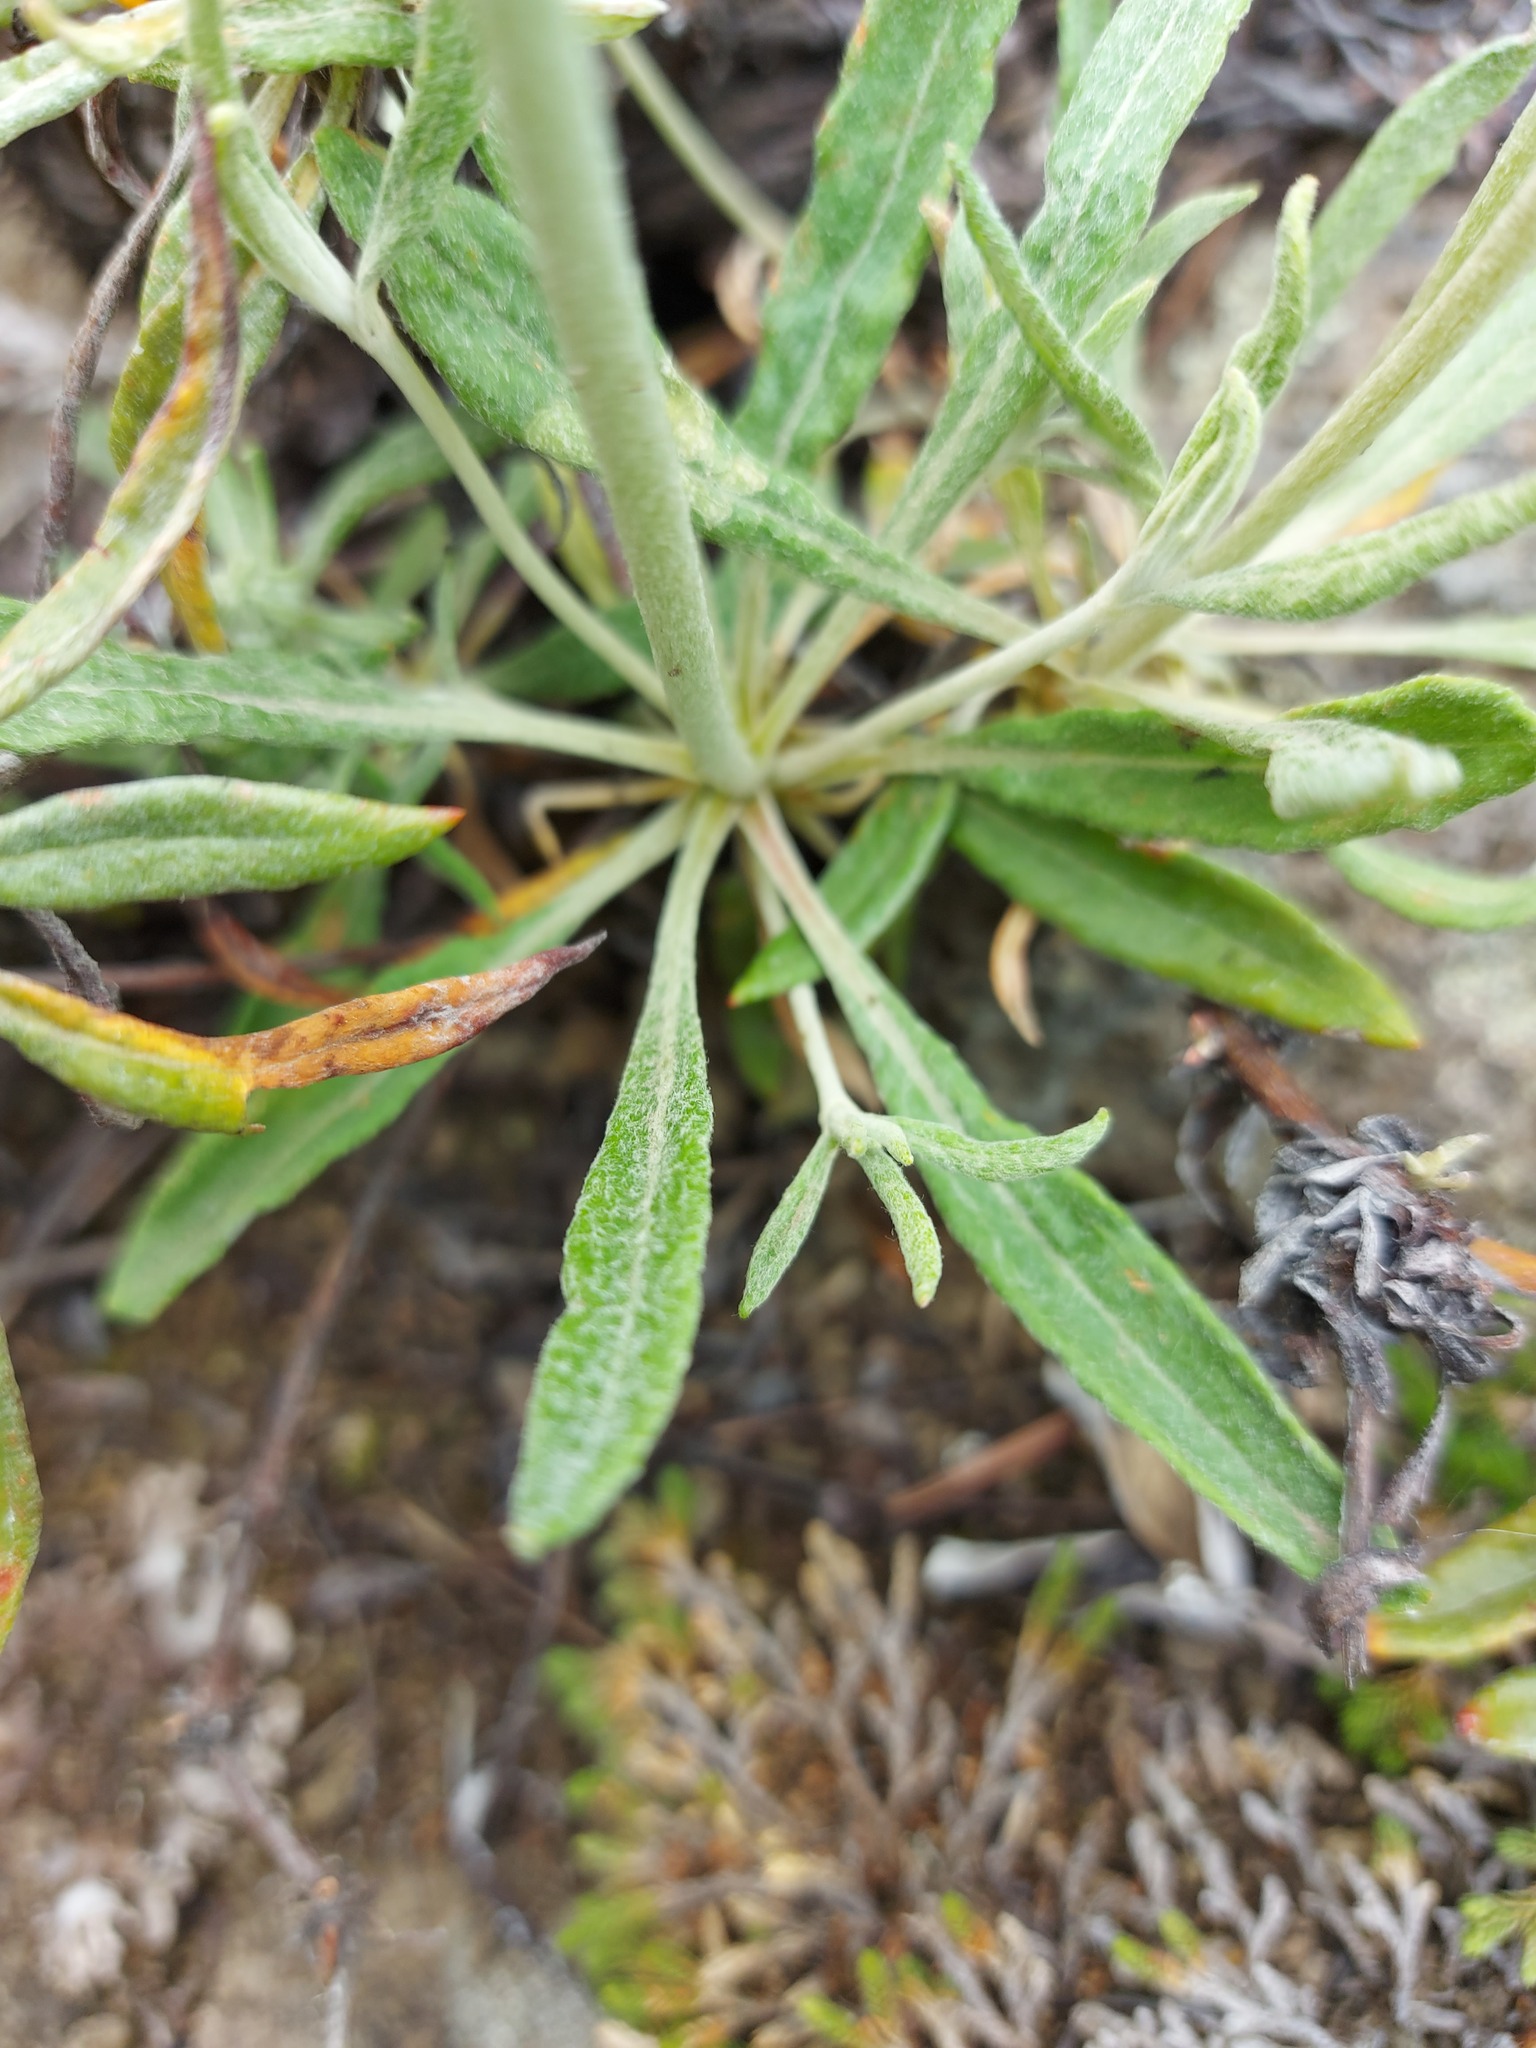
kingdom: Plantae
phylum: Tracheophyta
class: Magnoliopsida
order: Caryophyllales
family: Polygonaceae
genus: Eriogonum
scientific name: Eriogonum heracleoides
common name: Wyeth's buckwheat
